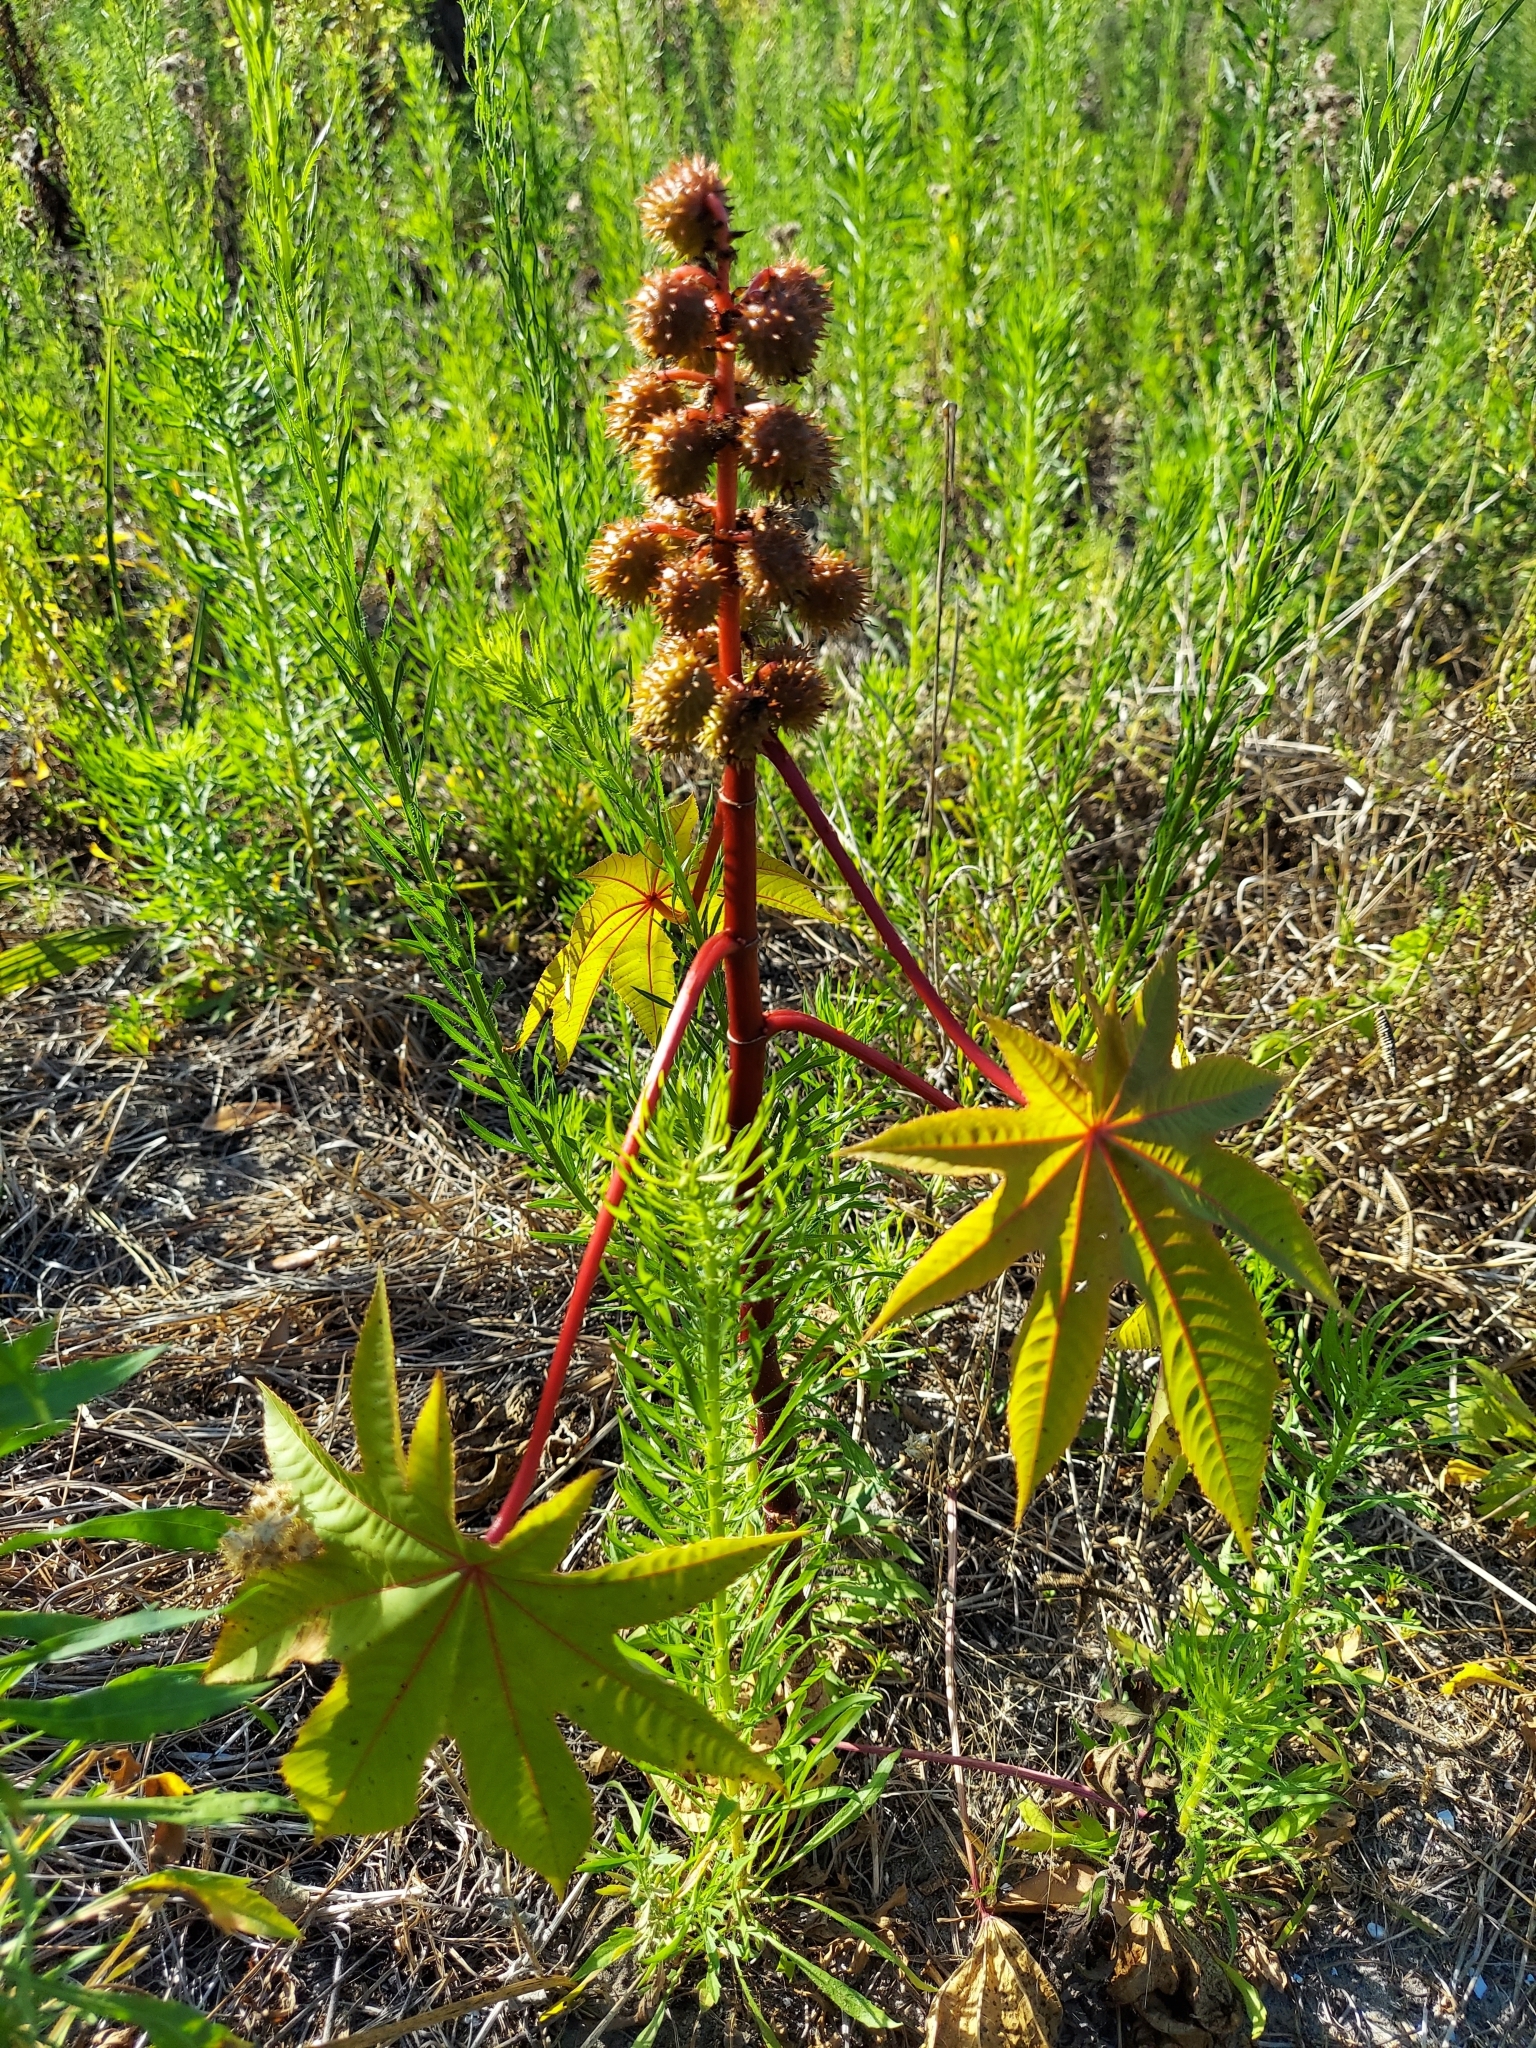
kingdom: Plantae
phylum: Tracheophyta
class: Magnoliopsida
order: Malpighiales
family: Euphorbiaceae
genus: Ricinus
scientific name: Ricinus communis
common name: Castor-oil-plant
